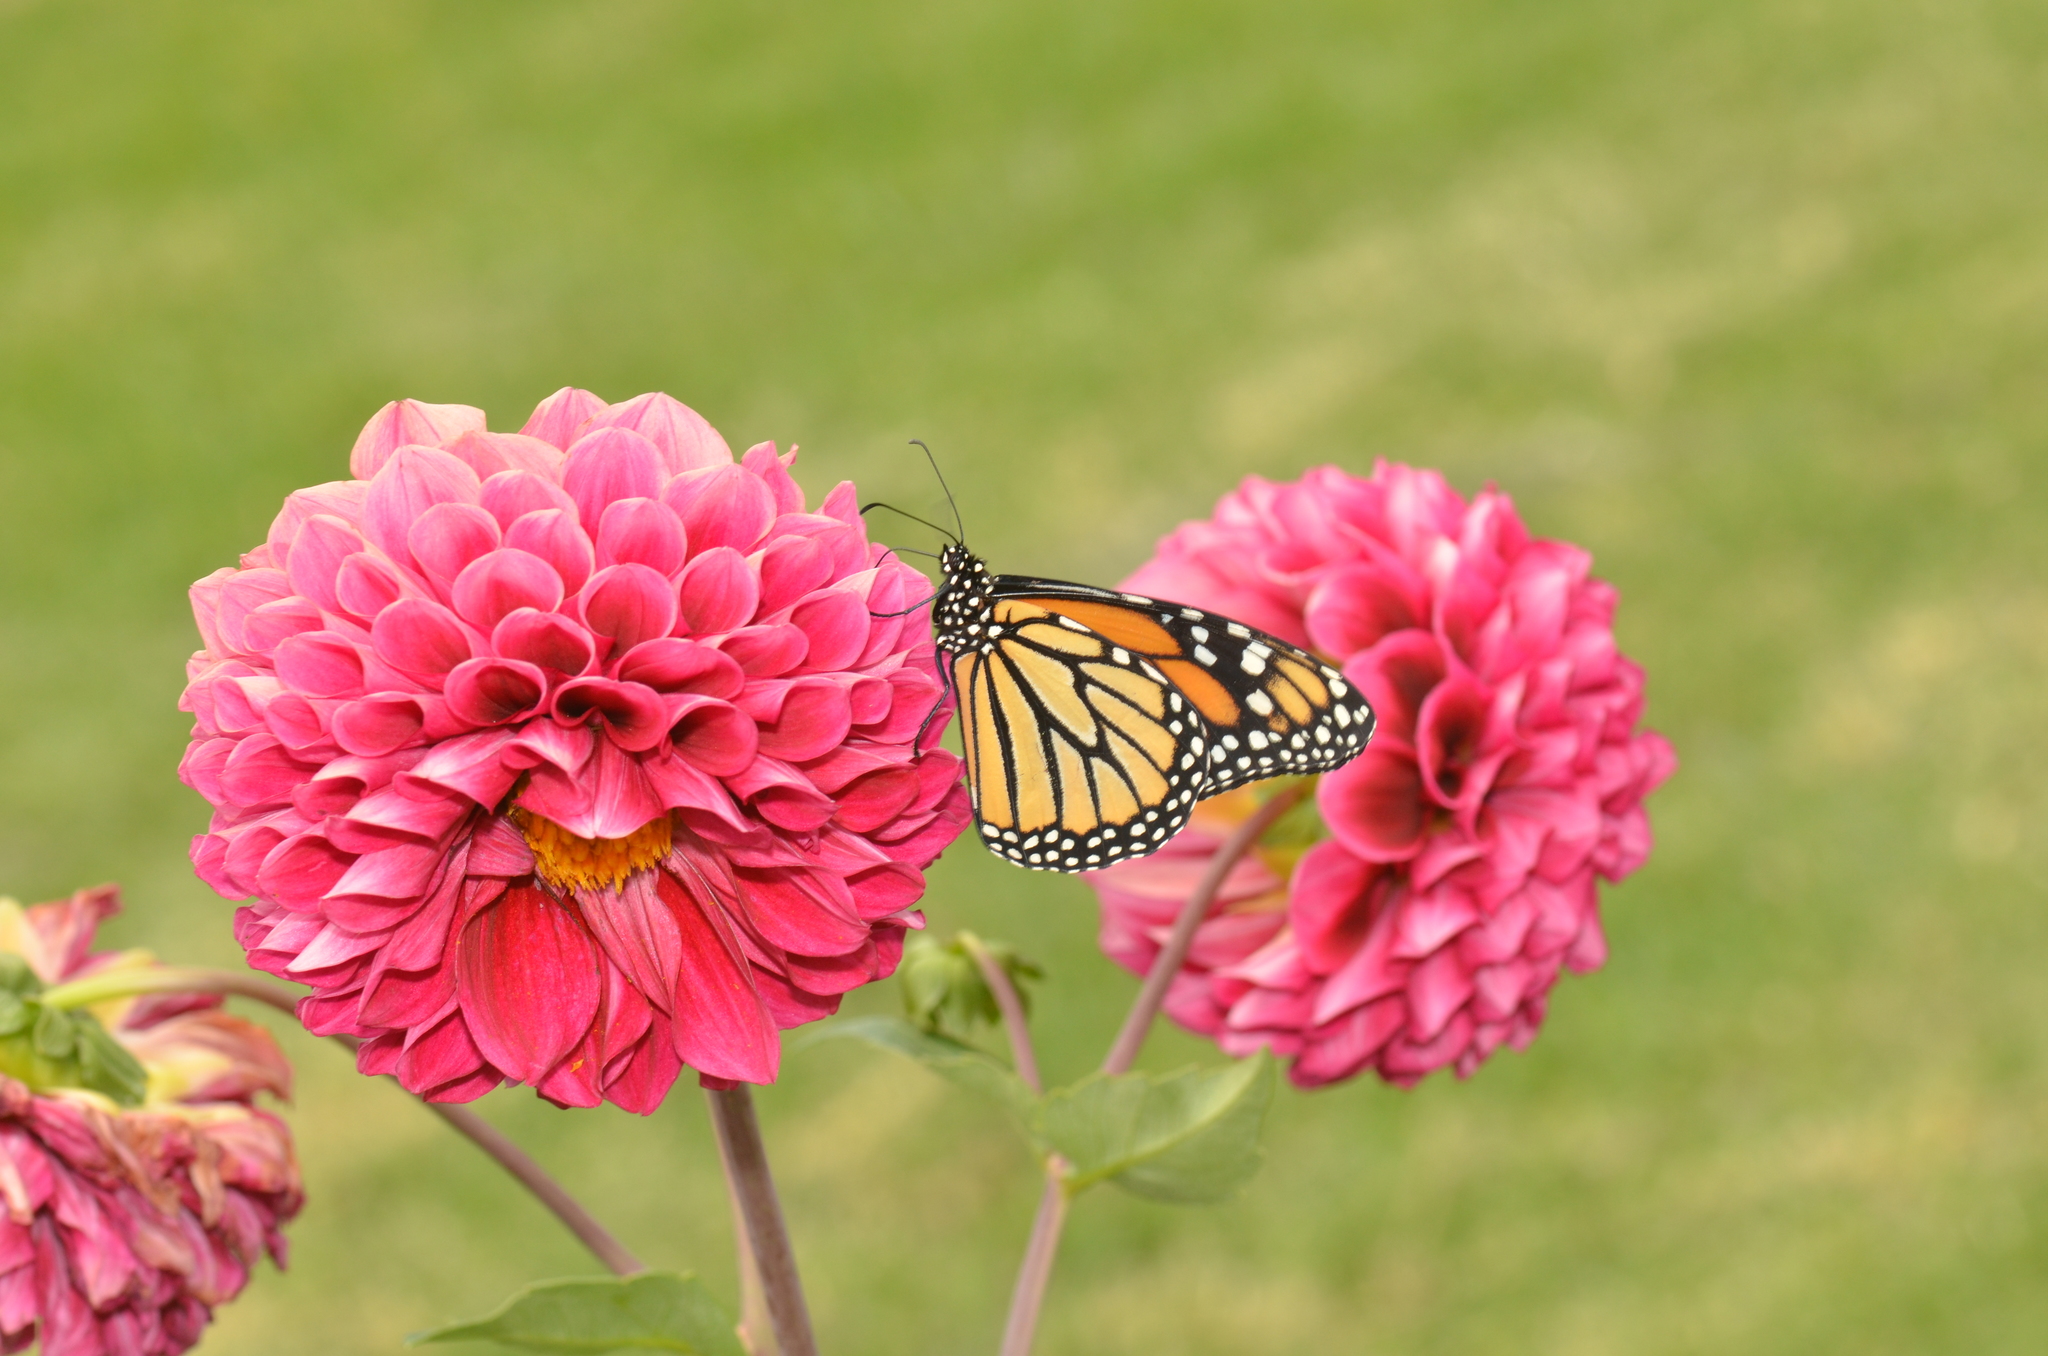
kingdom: Animalia
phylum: Arthropoda
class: Insecta
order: Lepidoptera
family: Nymphalidae
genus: Danaus
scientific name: Danaus plexippus
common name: Monarch
